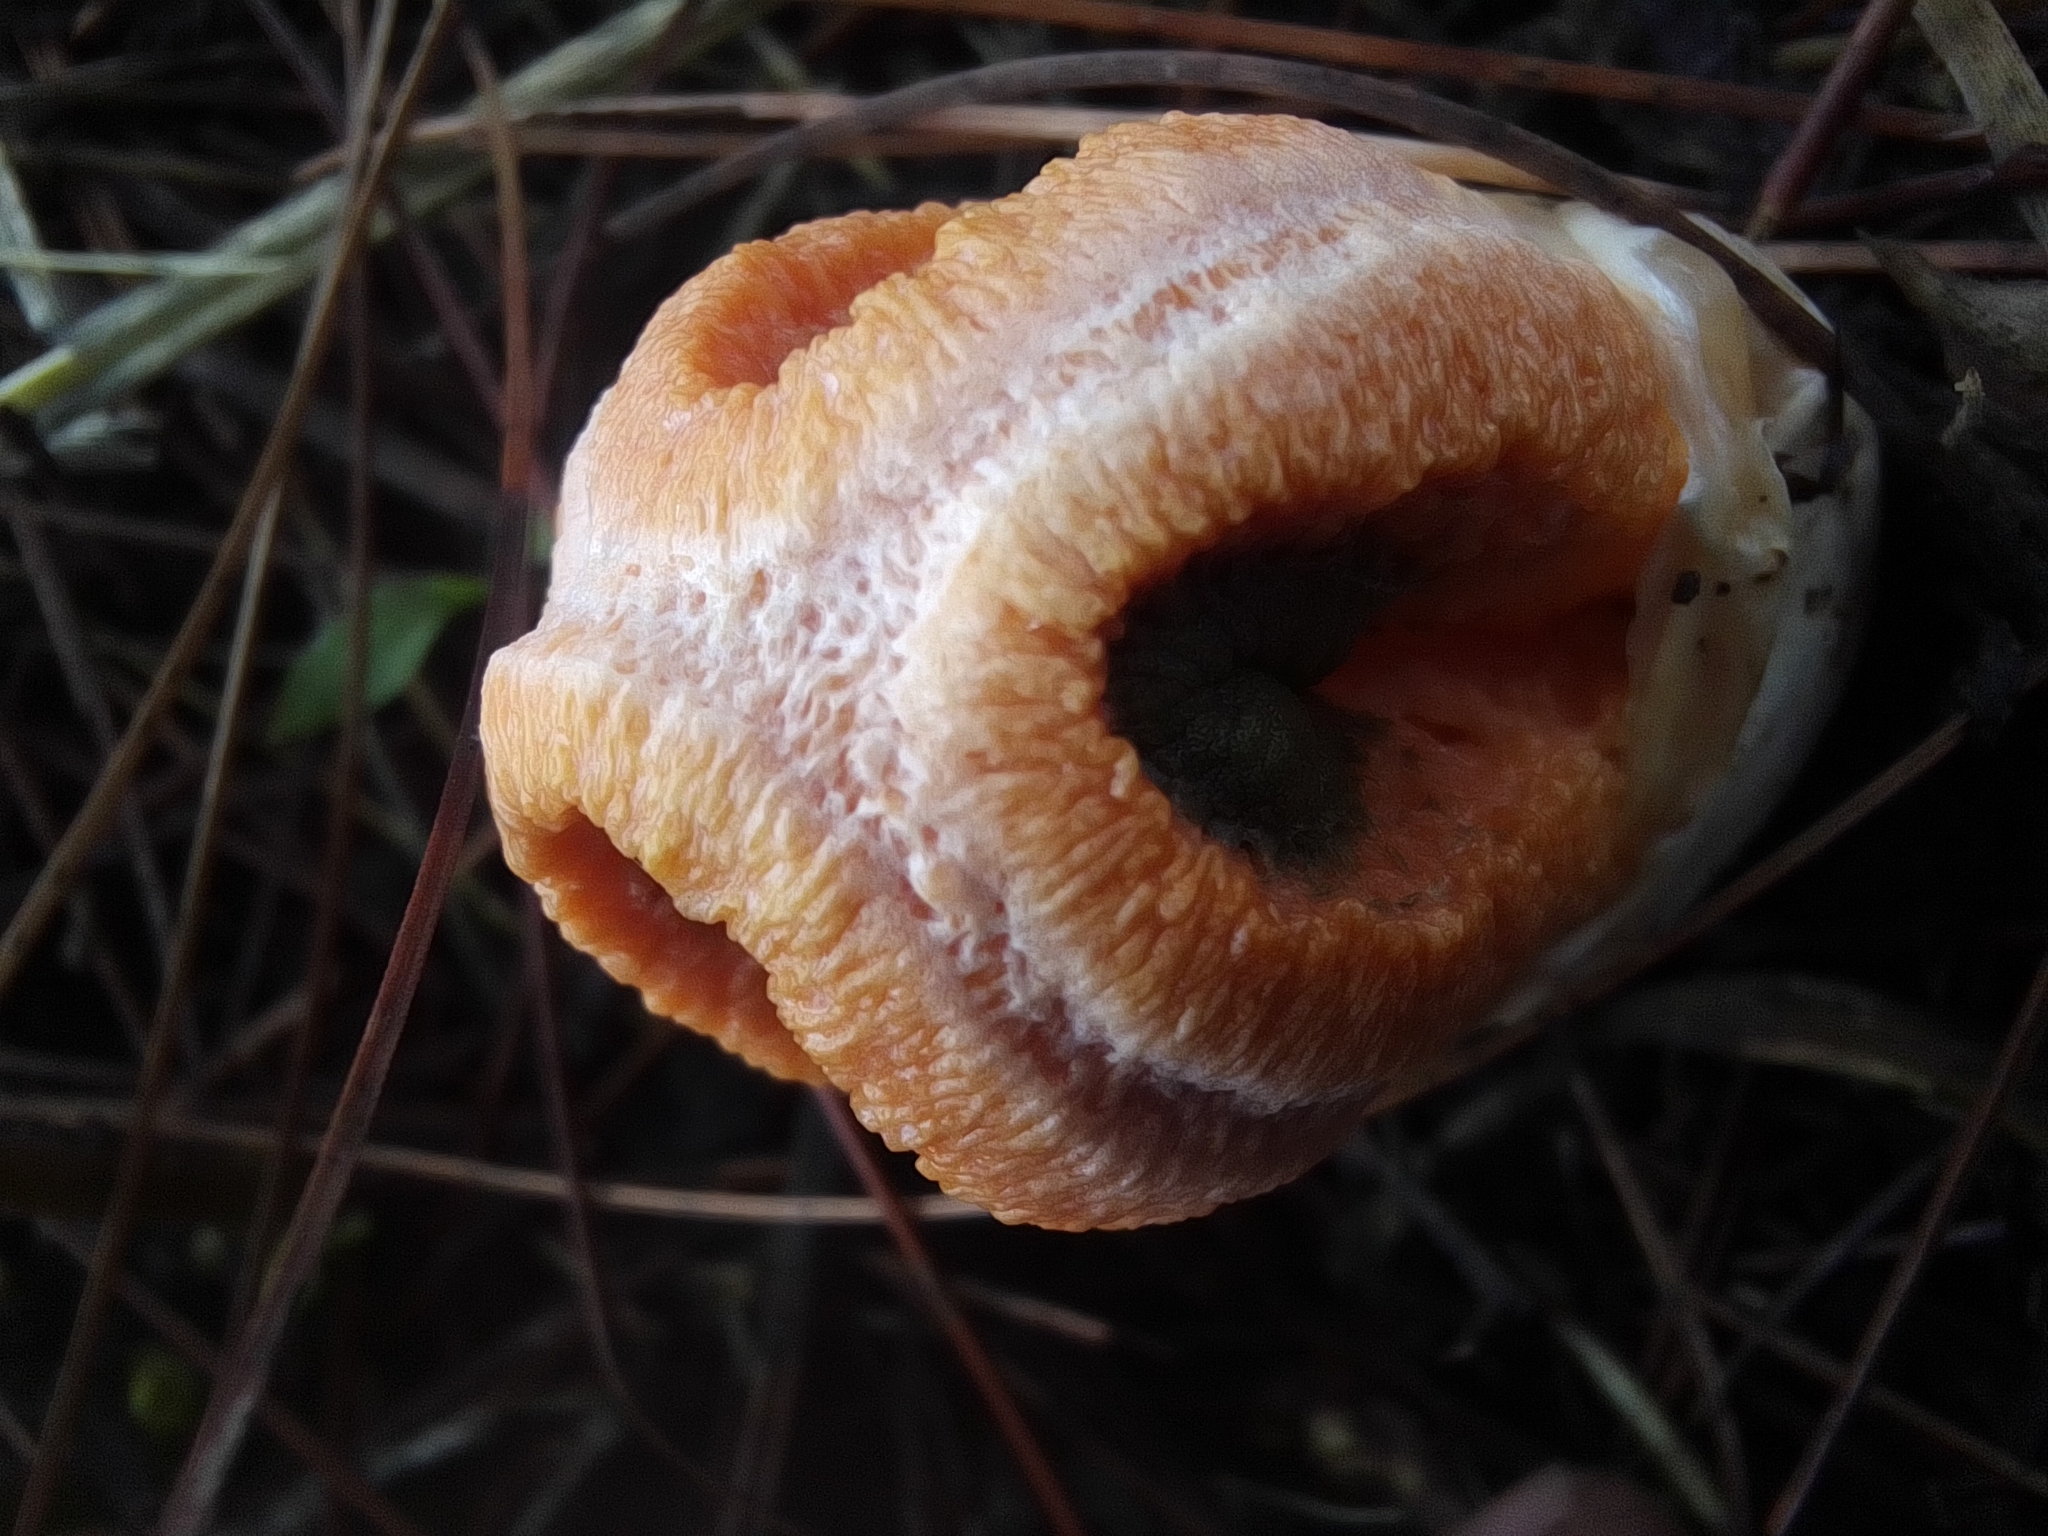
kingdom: Fungi
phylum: Basidiomycota
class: Agaricomycetes
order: Phallales
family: Phallaceae
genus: Clathrus
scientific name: Clathrus columnatus
